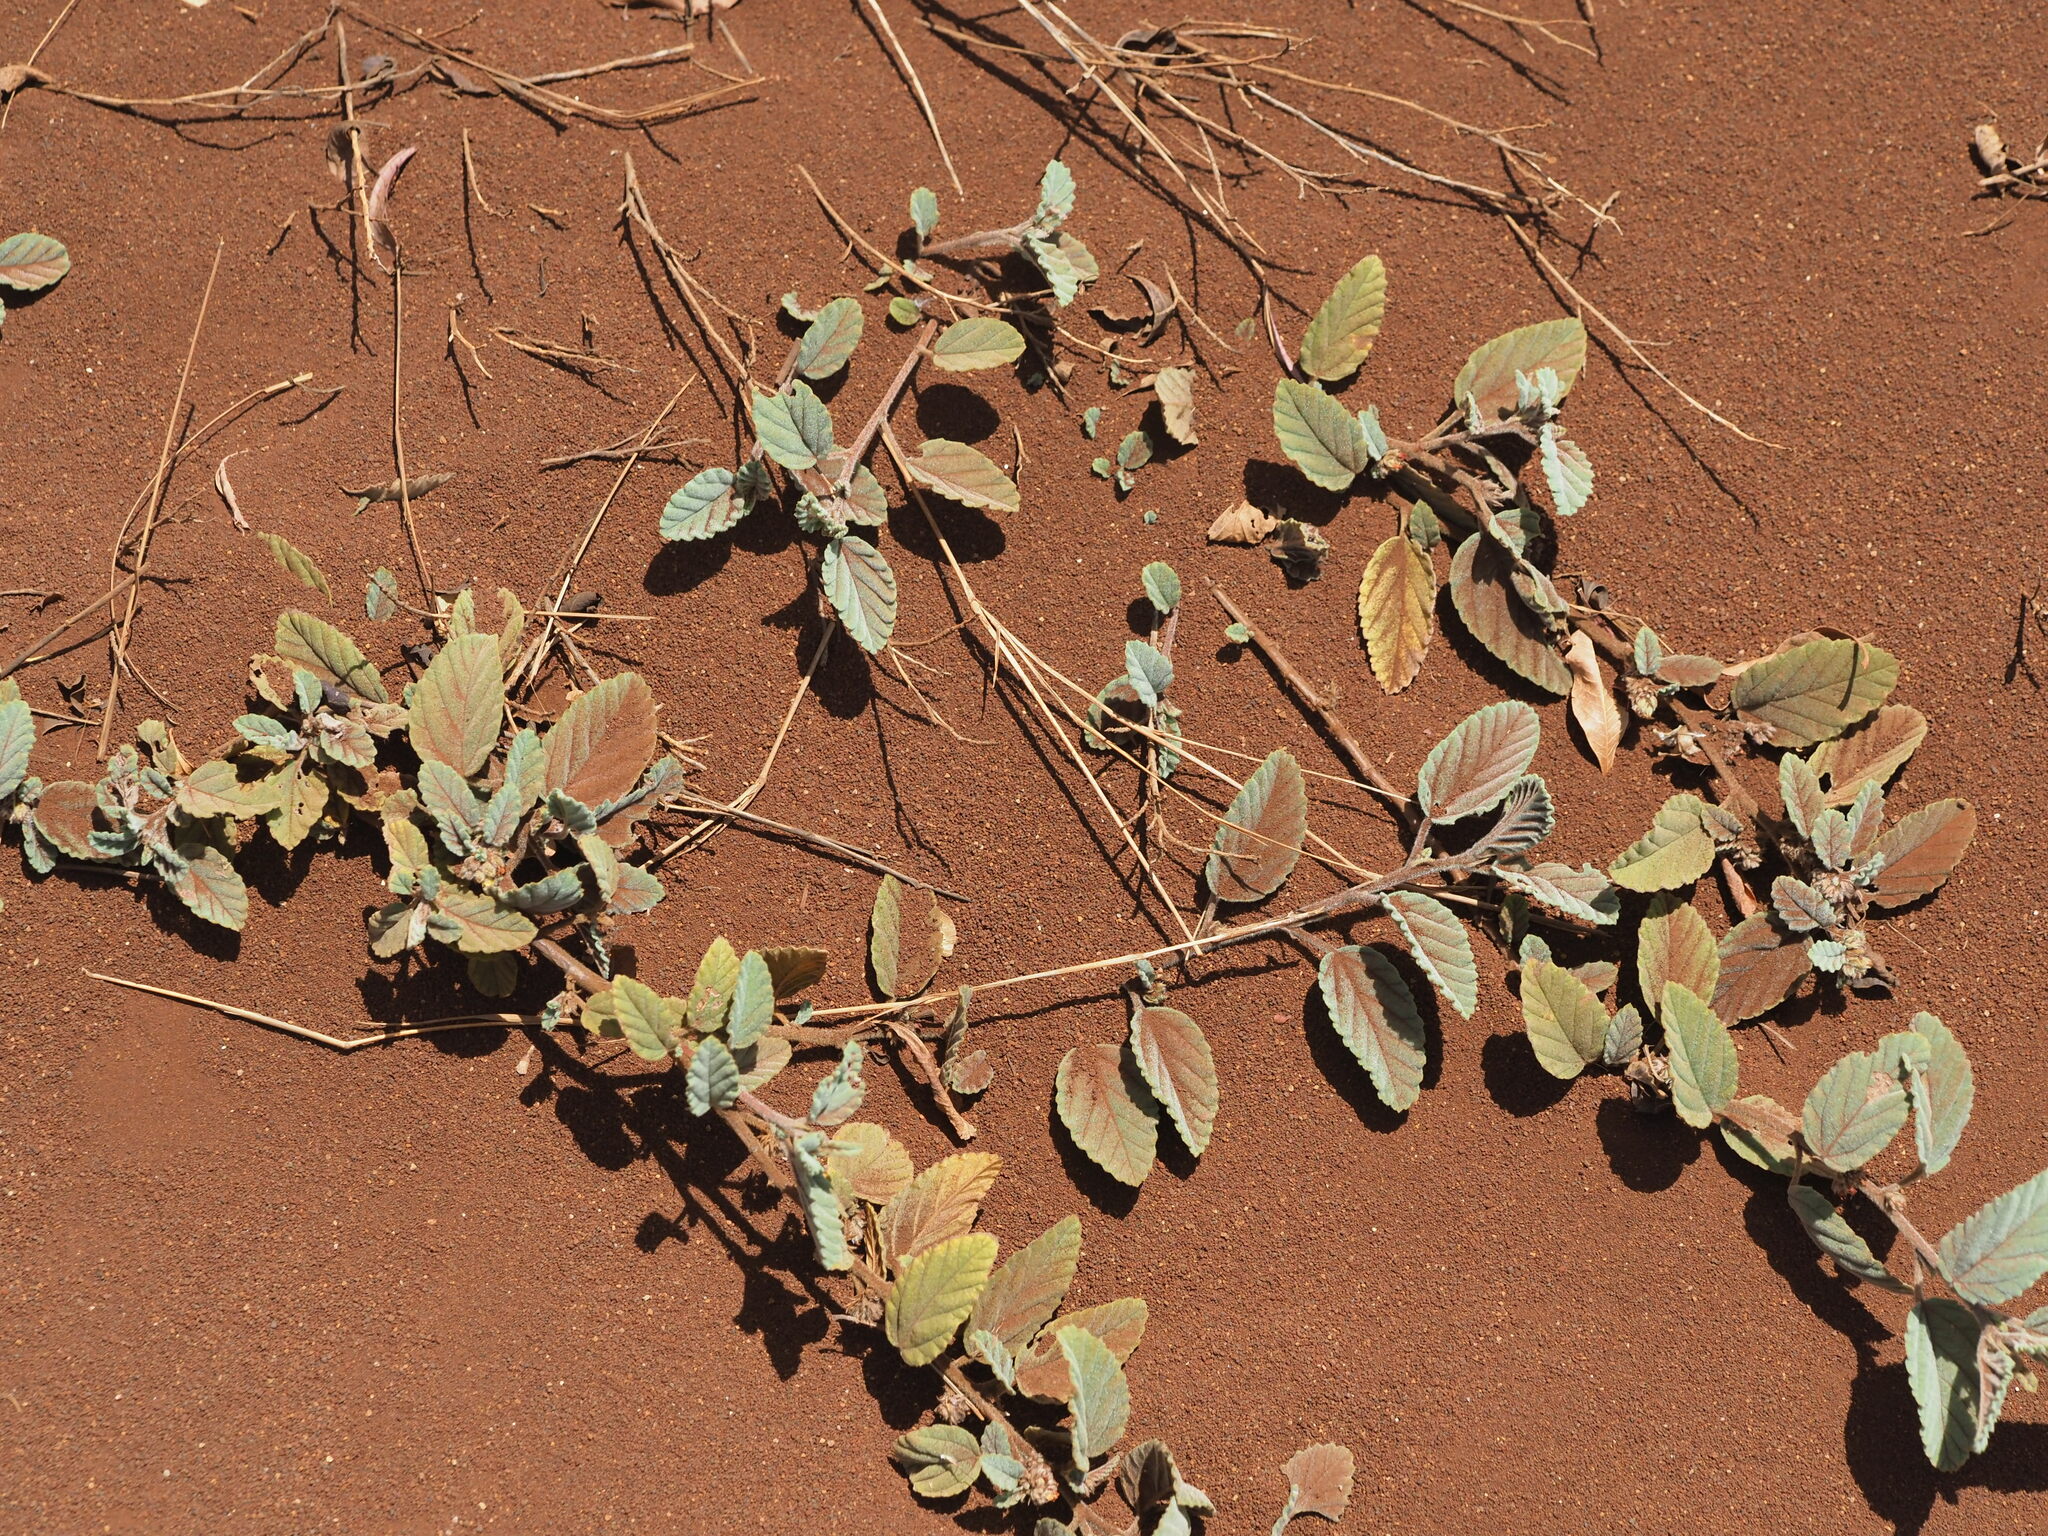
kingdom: Plantae
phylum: Tracheophyta
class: Magnoliopsida
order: Malvales
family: Malvaceae
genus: Waltheria
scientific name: Waltheria indica
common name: Leather-coat
